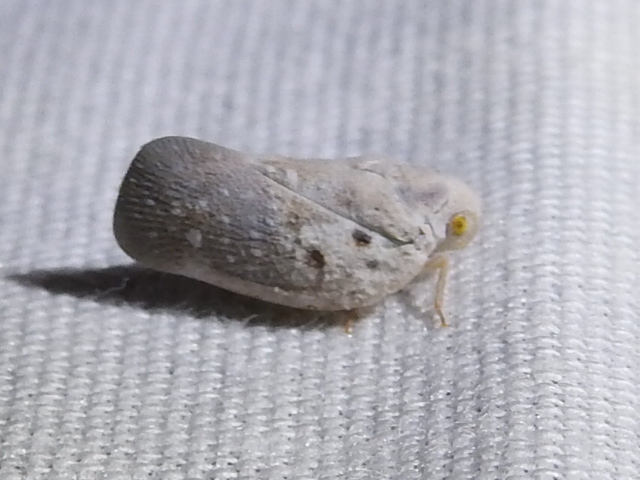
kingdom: Animalia
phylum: Arthropoda
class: Insecta
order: Hemiptera
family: Flatidae
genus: Metcalfa
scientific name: Metcalfa pruinosa
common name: Citrus flatid planthopper
